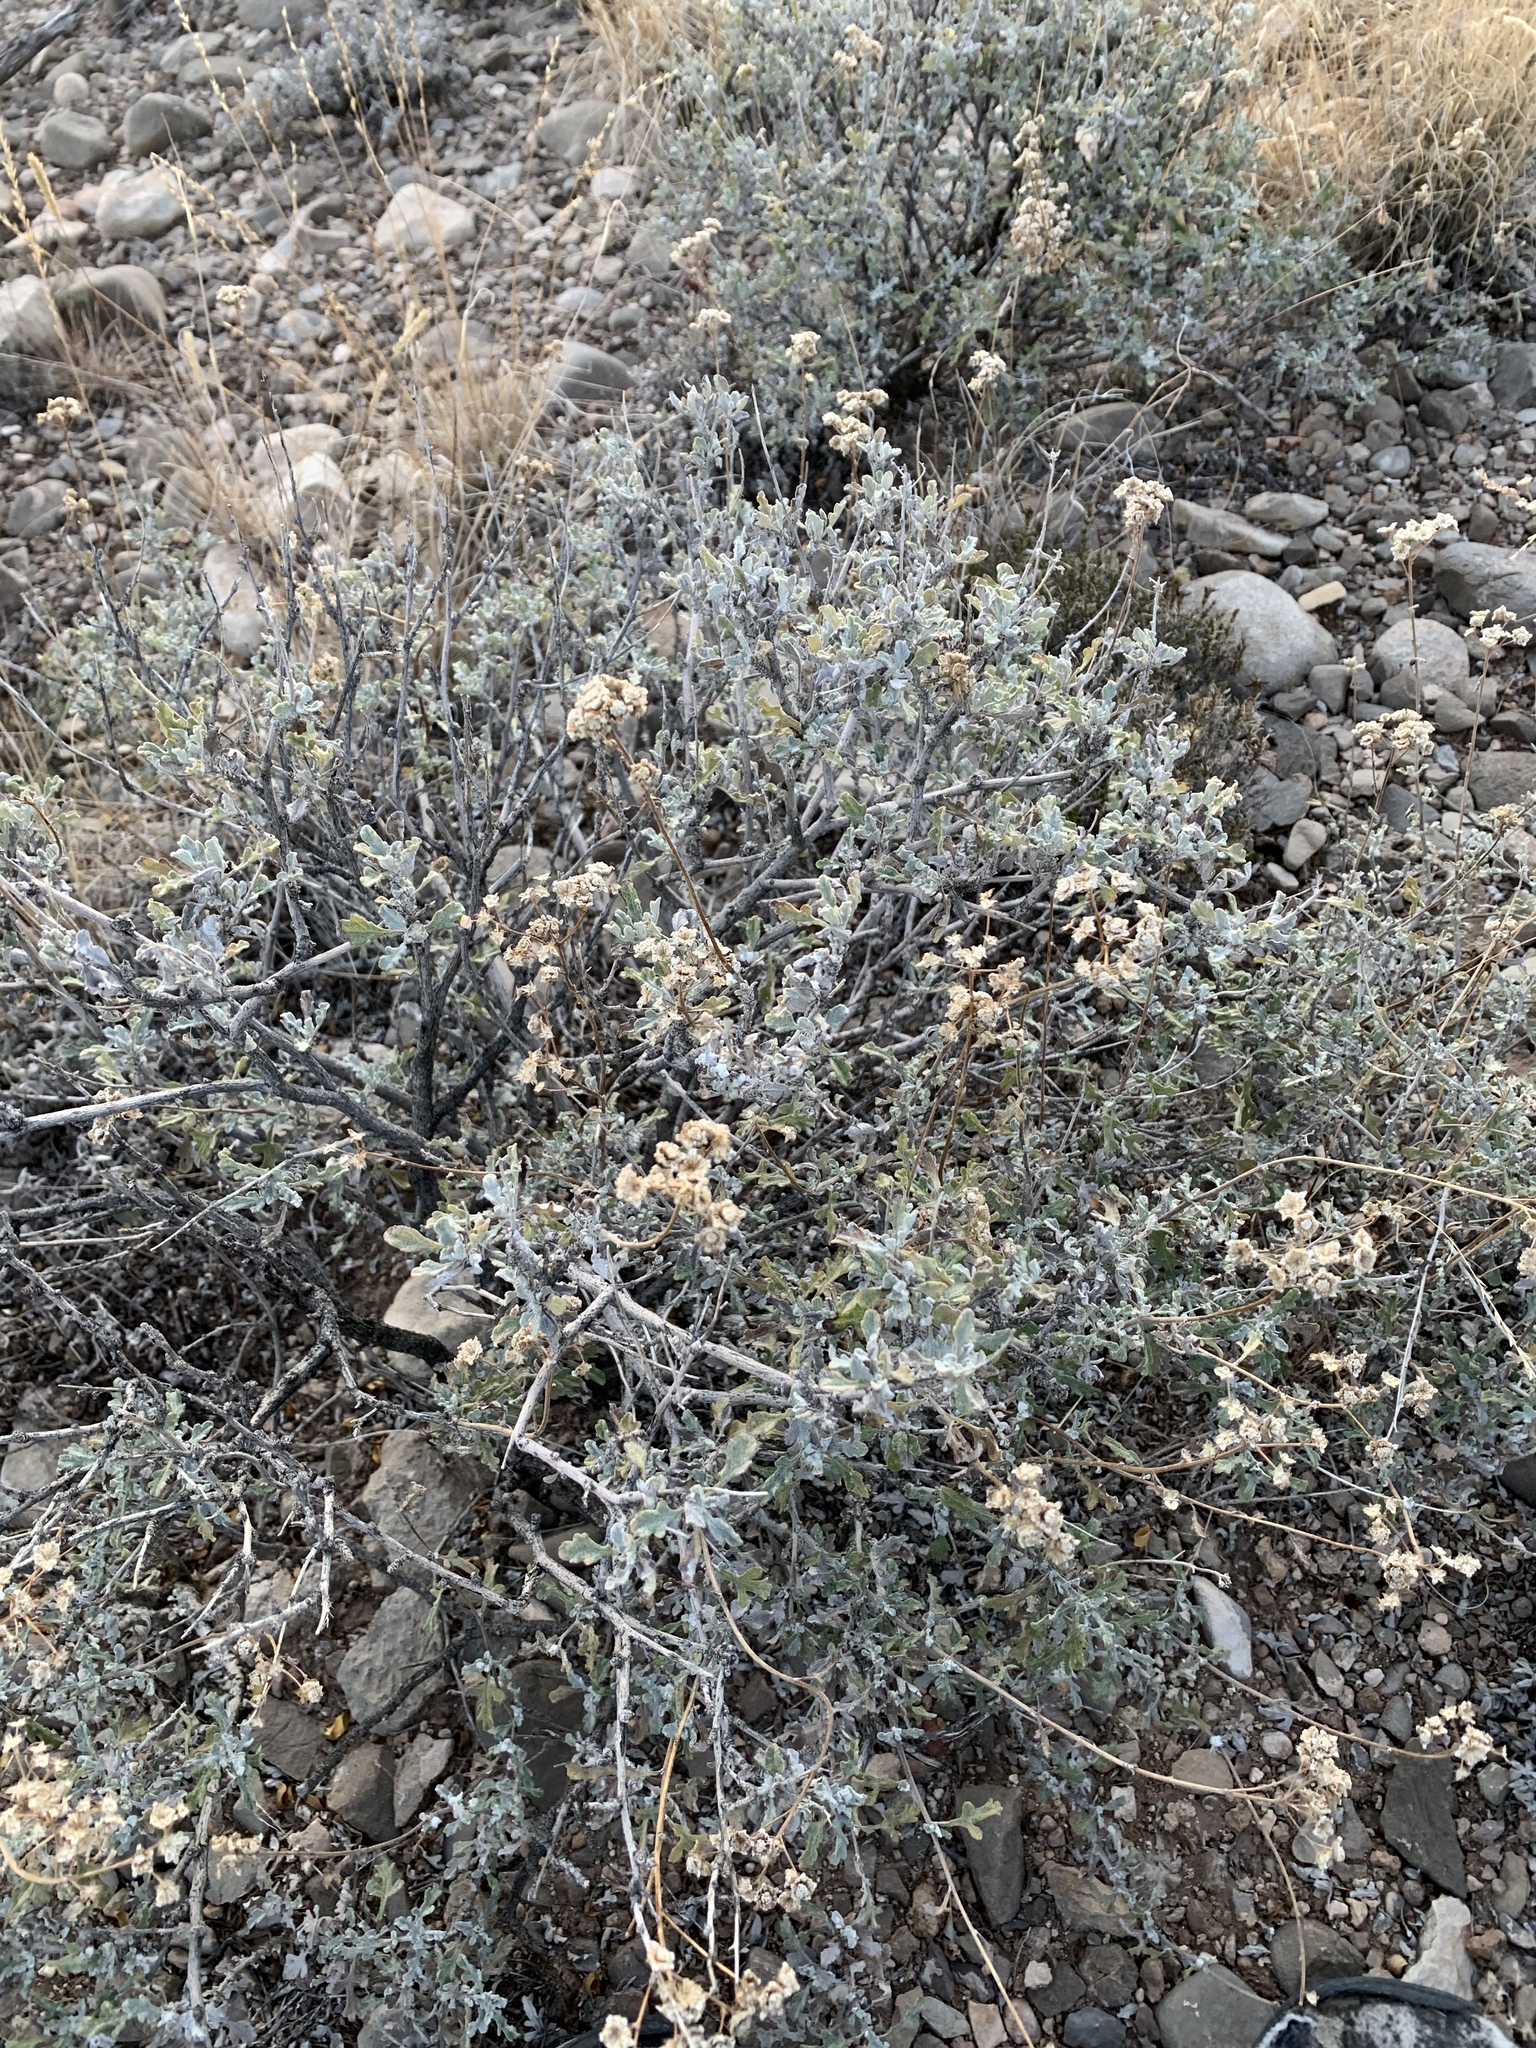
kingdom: Plantae
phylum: Tracheophyta
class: Magnoliopsida
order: Asterales
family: Asteraceae
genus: Parthenium
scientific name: Parthenium incanum
